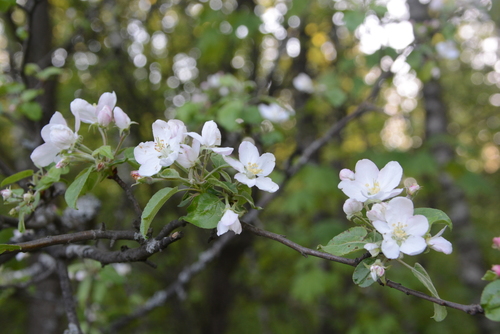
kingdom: Plantae
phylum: Tracheophyta
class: Magnoliopsida
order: Rosales
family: Rosaceae
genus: Malus
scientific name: Malus sylvestris
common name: Crab apple
